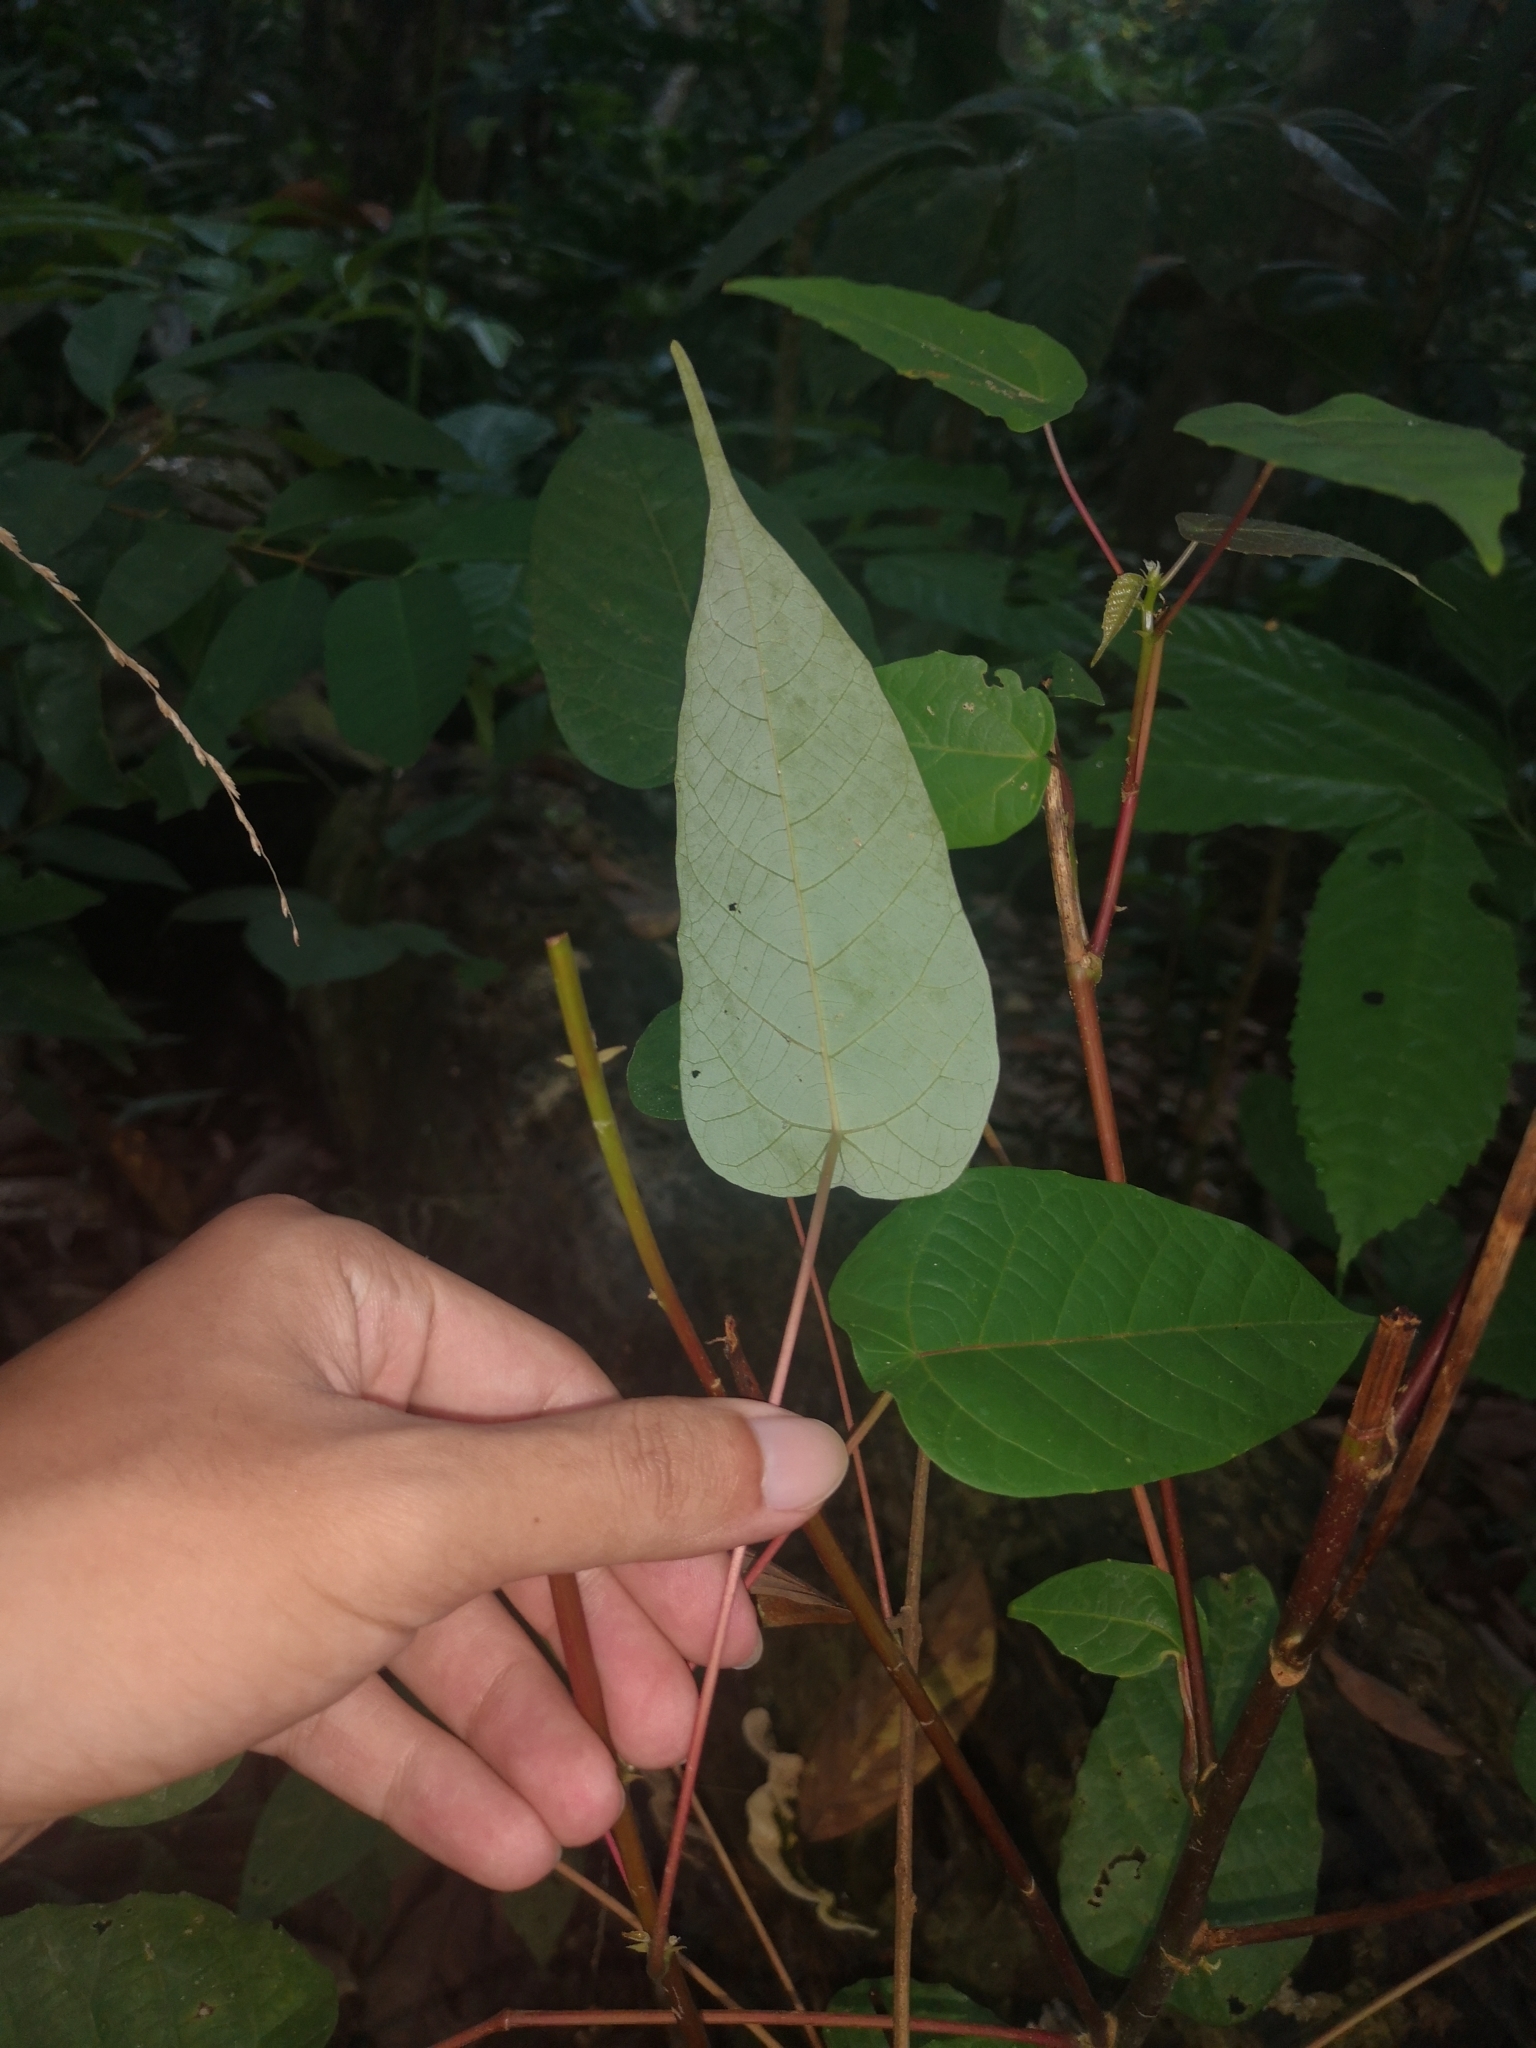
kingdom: Plantae
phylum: Tracheophyta
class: Magnoliopsida
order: Malpighiales
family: Euphorbiaceae
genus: Macaranga
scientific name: Macaranga hullettii
